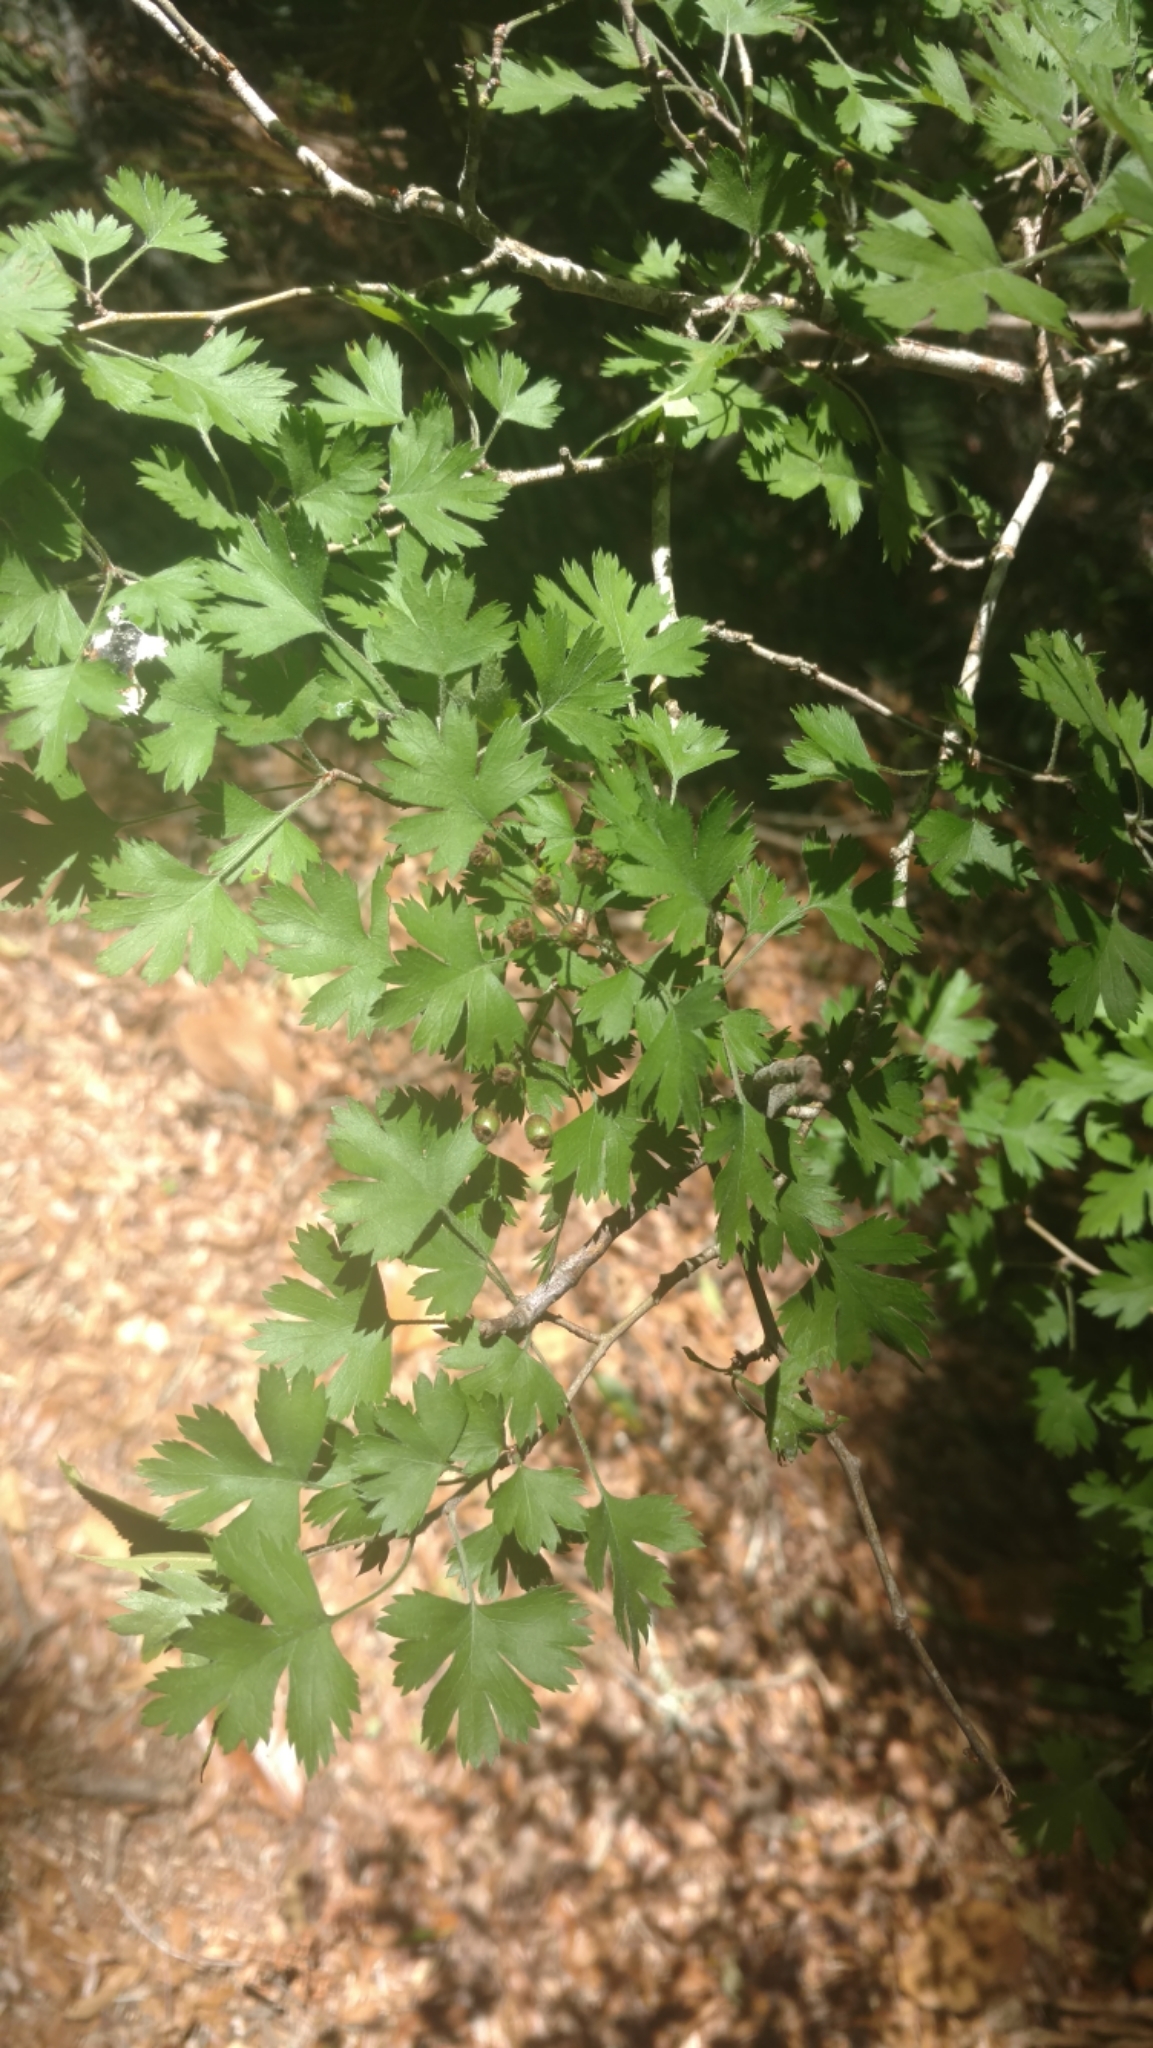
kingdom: Plantae
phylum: Tracheophyta
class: Magnoliopsida
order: Rosales
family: Rosaceae
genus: Crataegus
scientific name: Crataegus marshallii
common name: Parsley-hawthorn
